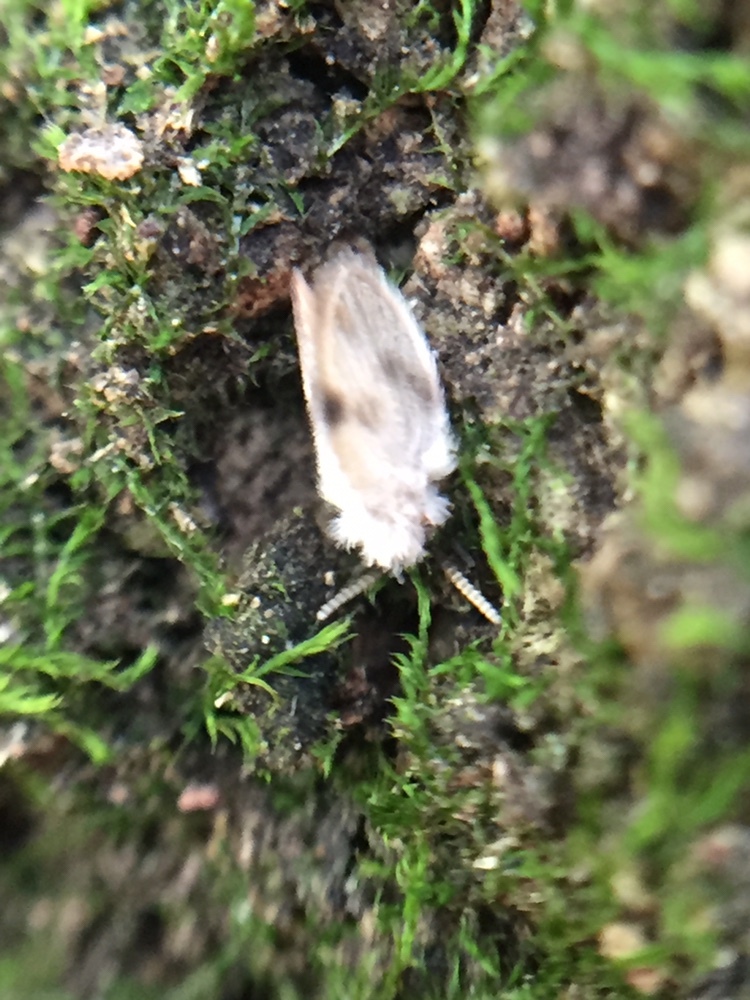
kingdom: Animalia
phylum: Arthropoda
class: Insecta
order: Diptera
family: Psychodidae
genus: Psychoda
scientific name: Psychoda sigma
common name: Moth fly
